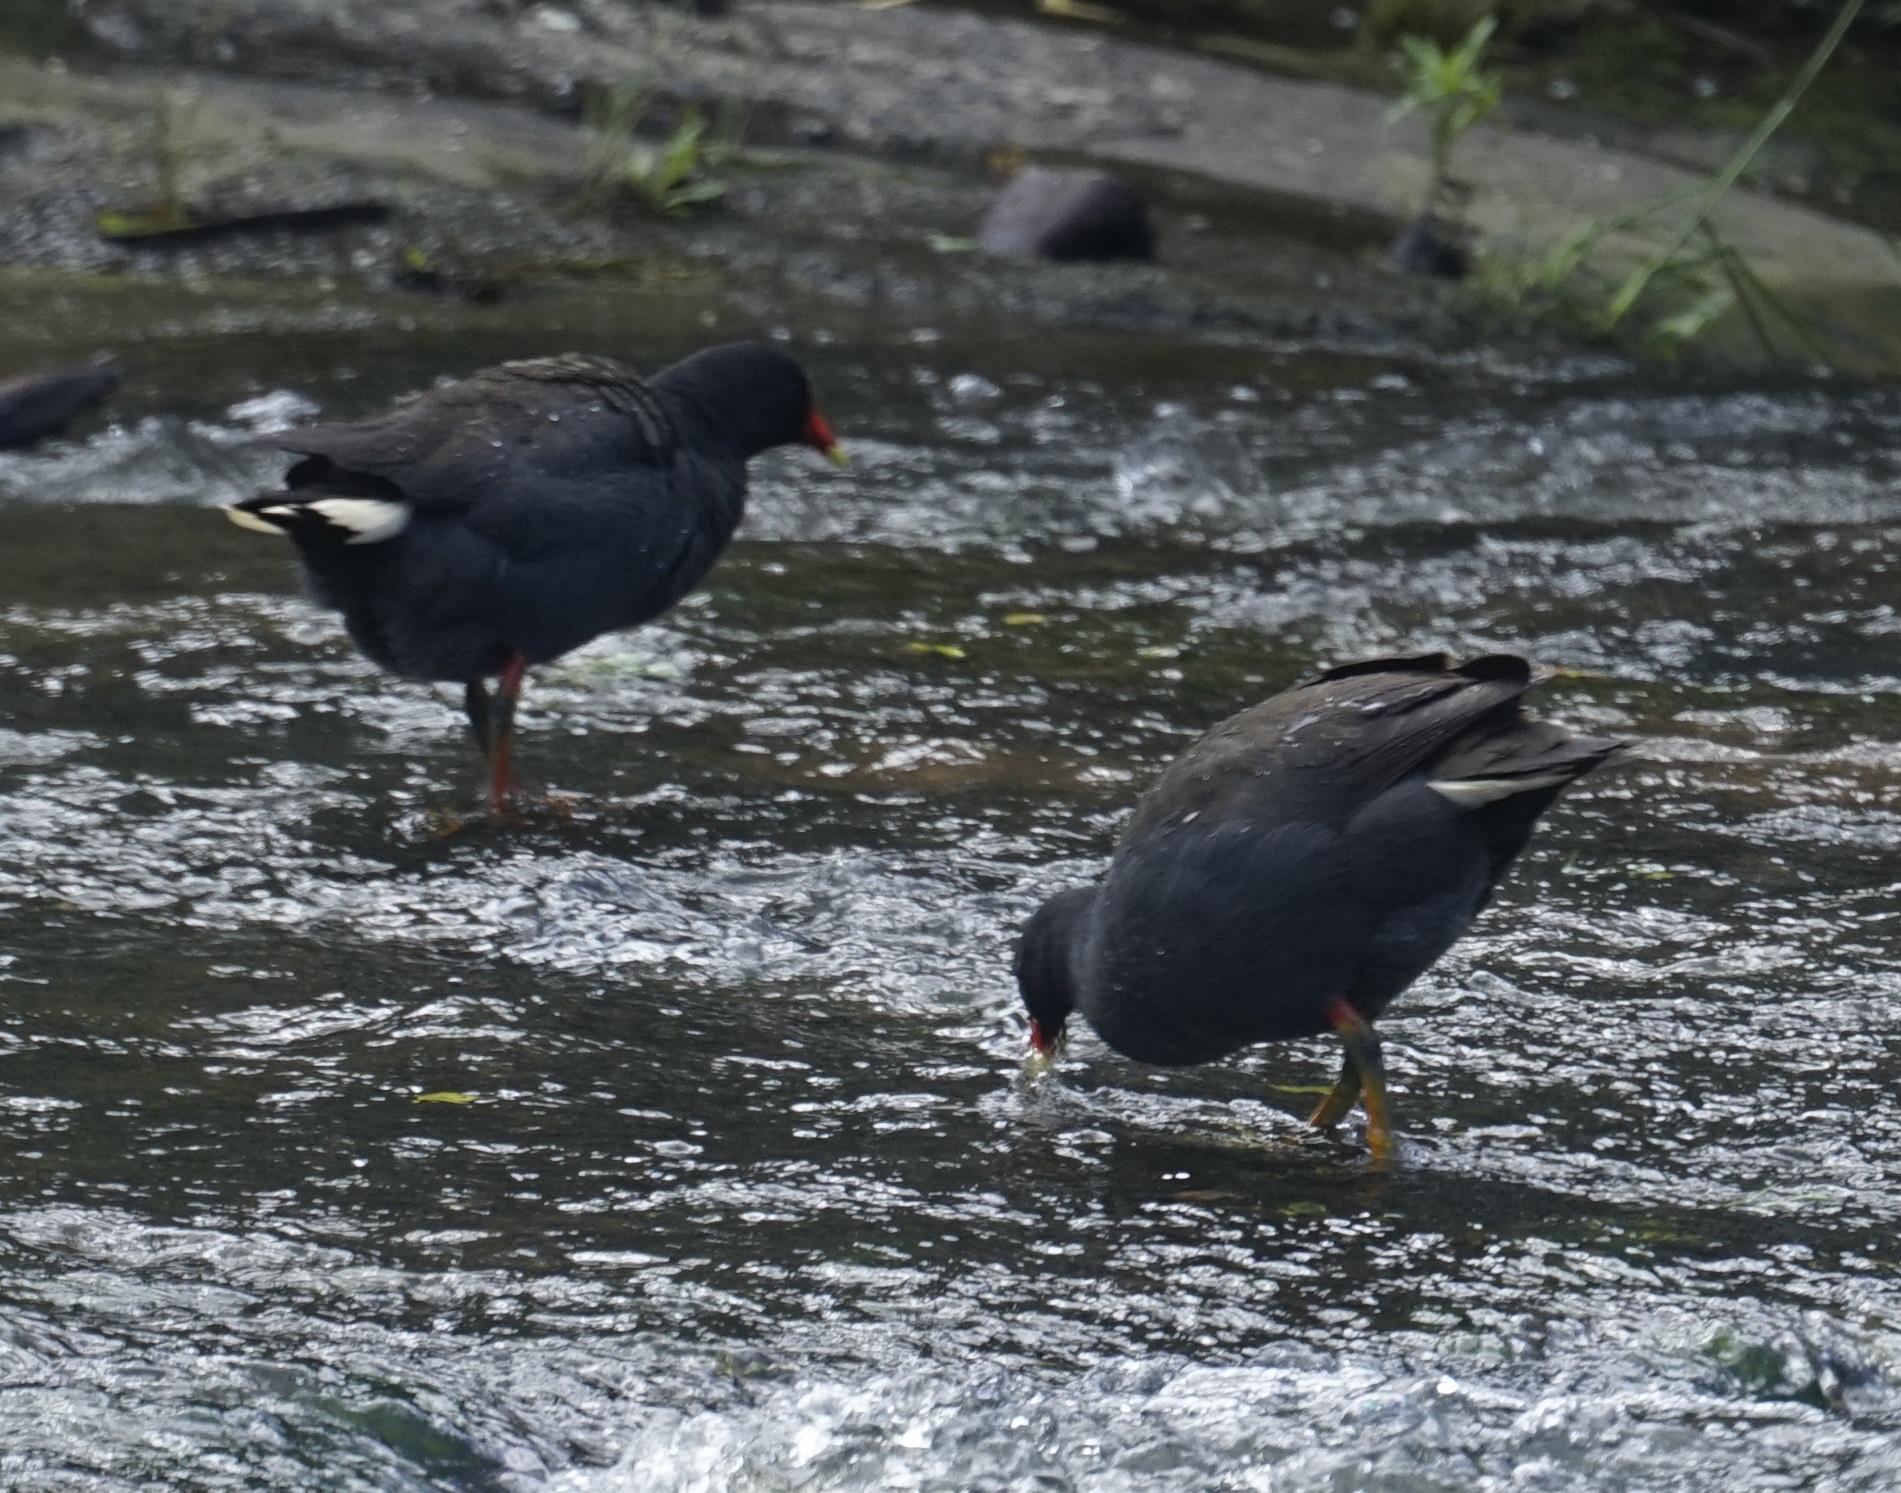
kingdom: Animalia
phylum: Chordata
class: Aves
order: Gruiformes
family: Rallidae
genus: Gallinula
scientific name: Gallinula tenebrosa
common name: Dusky moorhen
